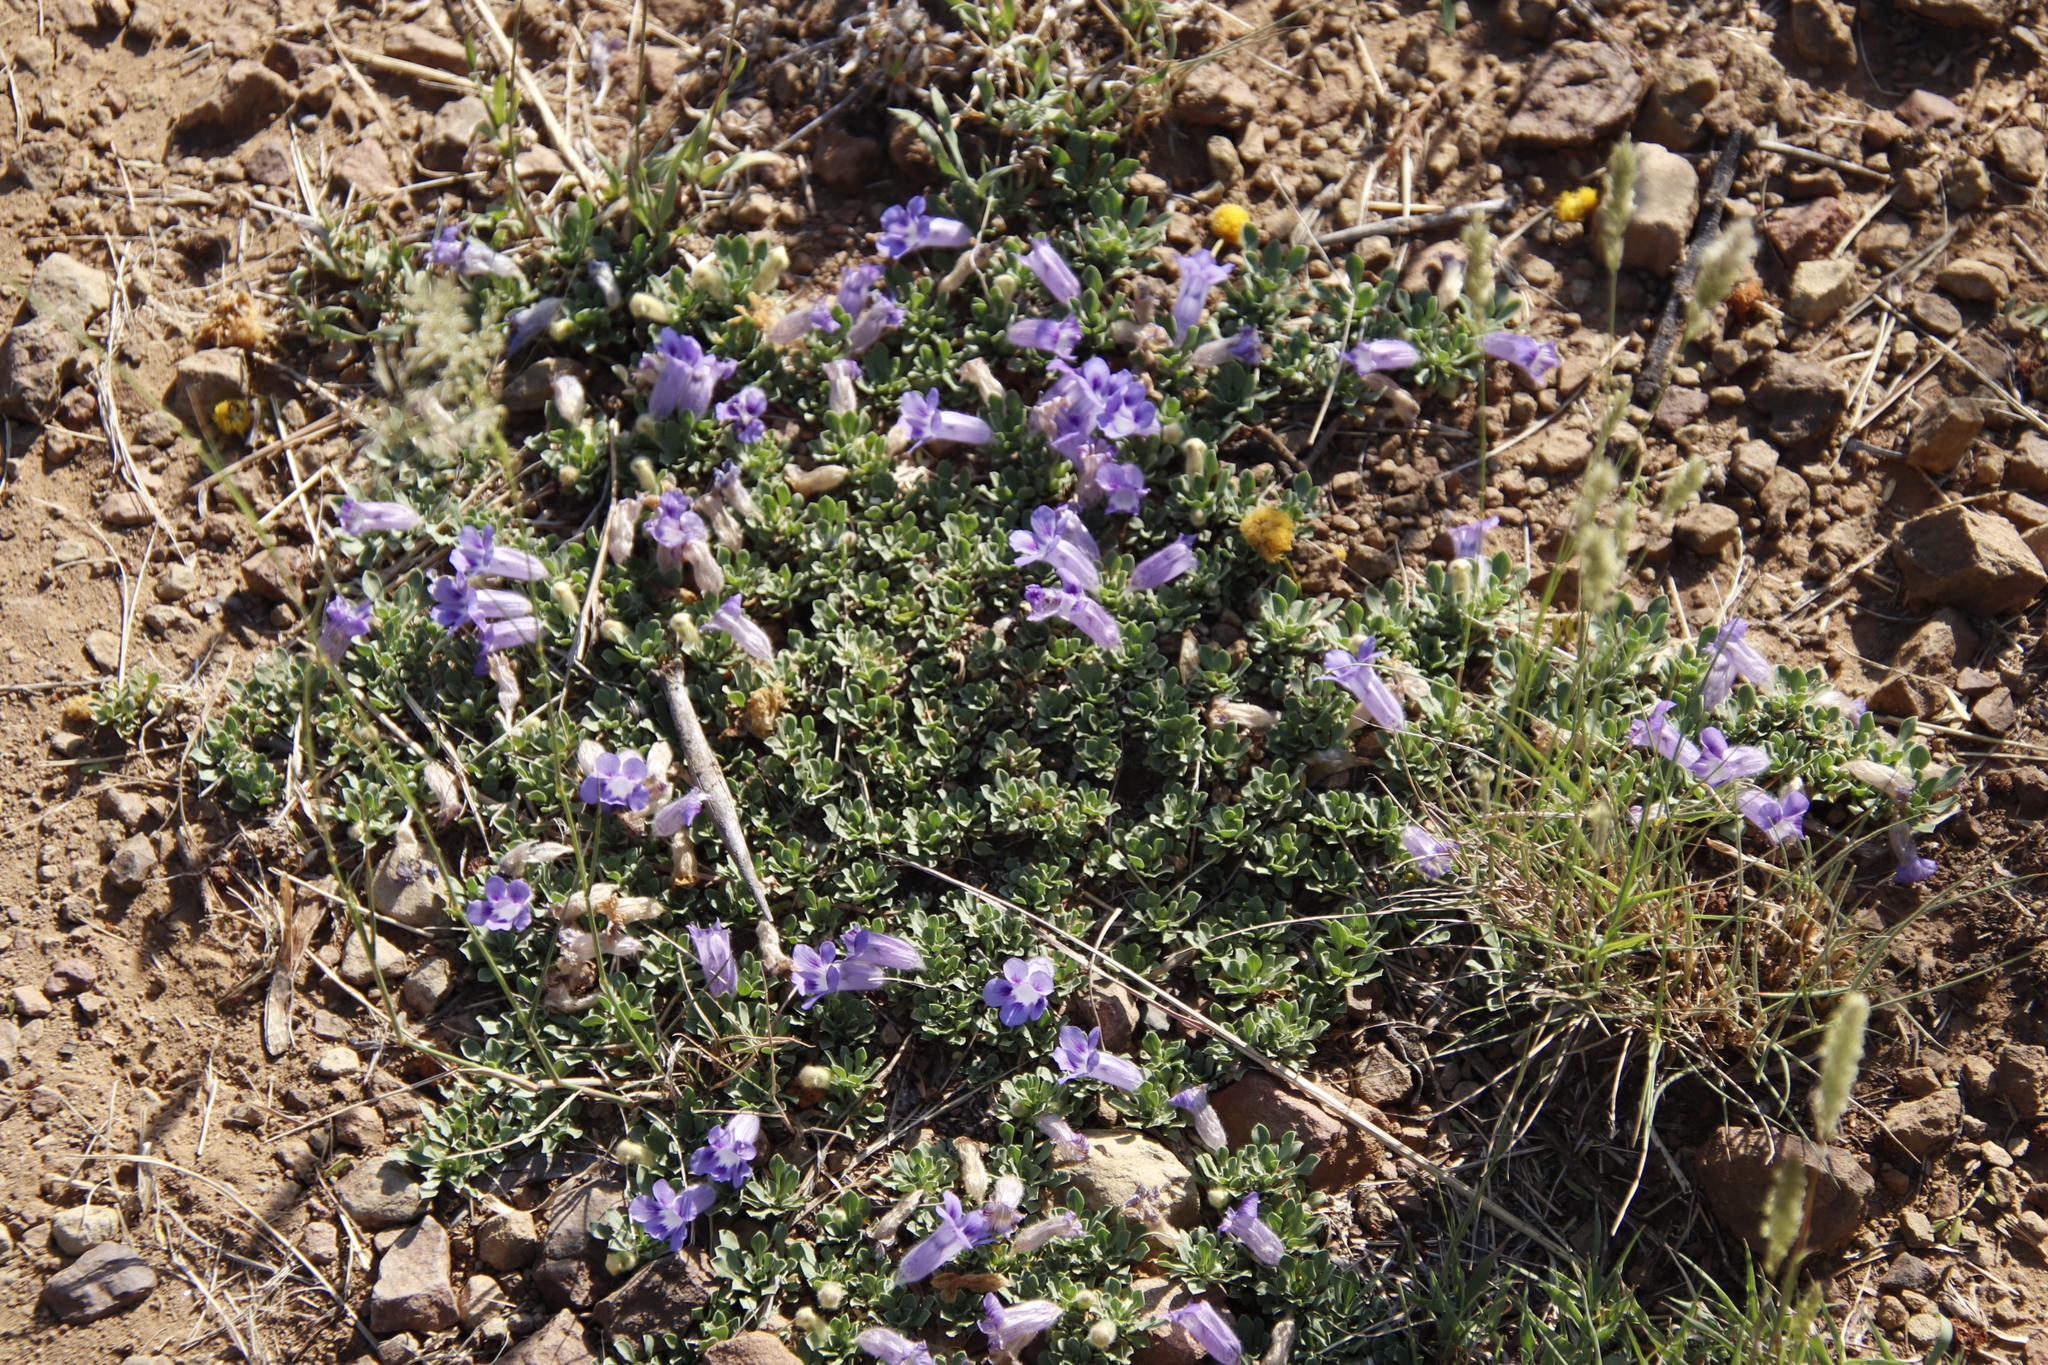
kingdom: Plantae
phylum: Tracheophyta
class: Magnoliopsida
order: Lamiales
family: Scrophulariaceae
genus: Aptosimum
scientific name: Aptosimum procumbens
